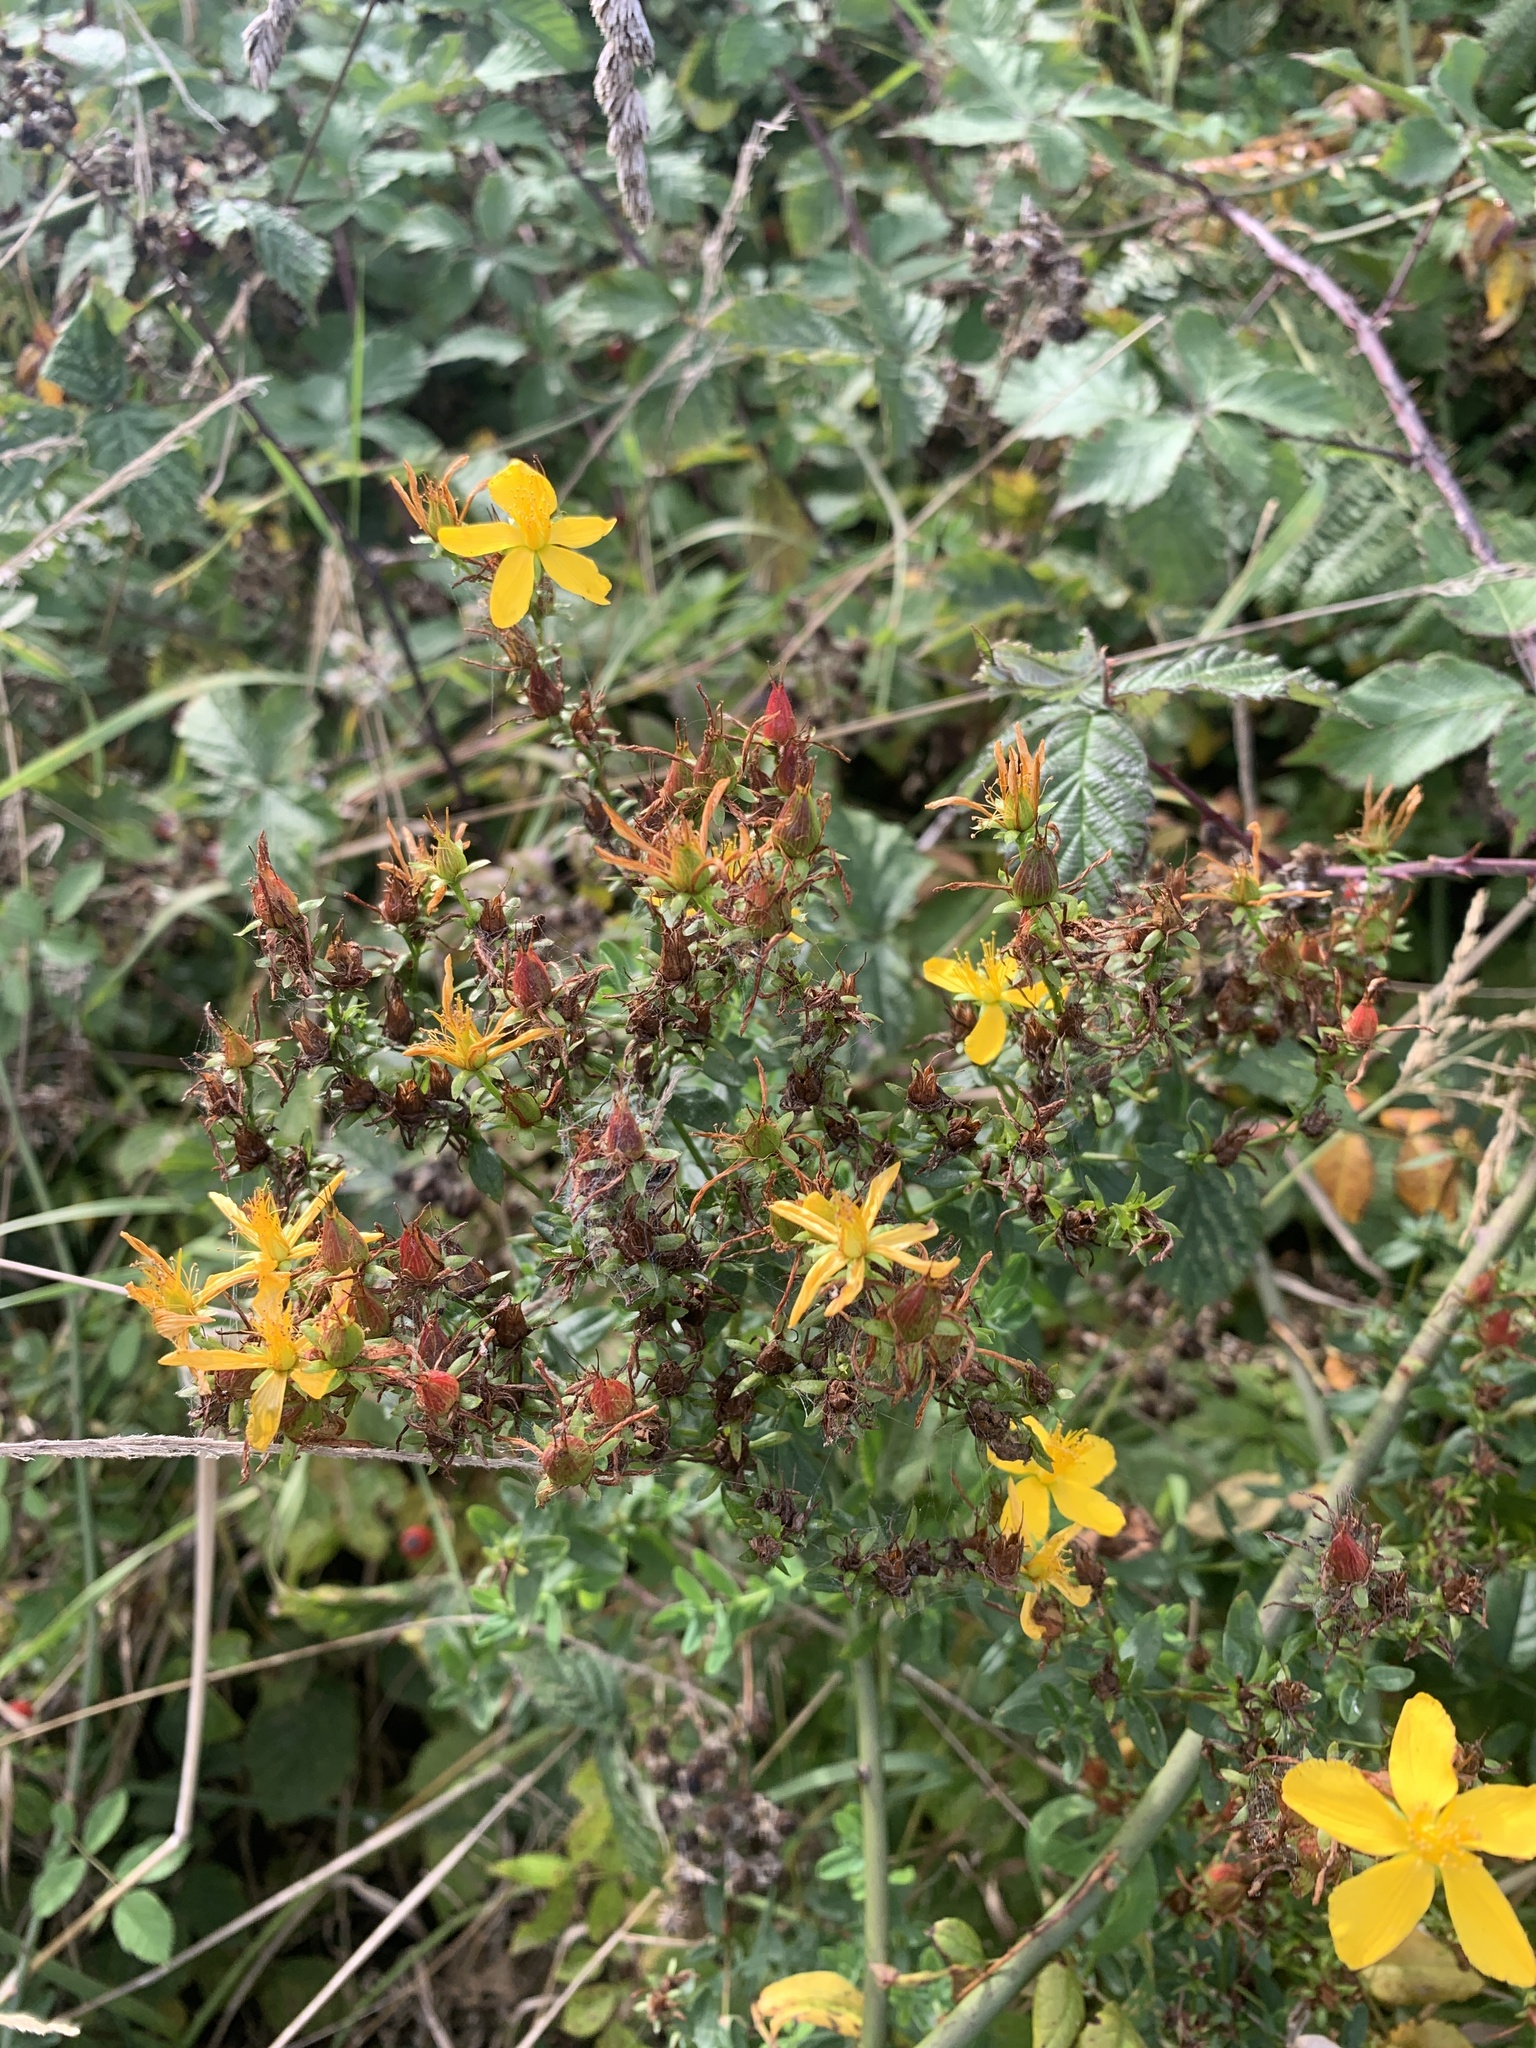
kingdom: Plantae
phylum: Tracheophyta
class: Magnoliopsida
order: Malpighiales
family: Hypericaceae
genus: Hypericum
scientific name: Hypericum perforatum
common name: Common st. johnswort
